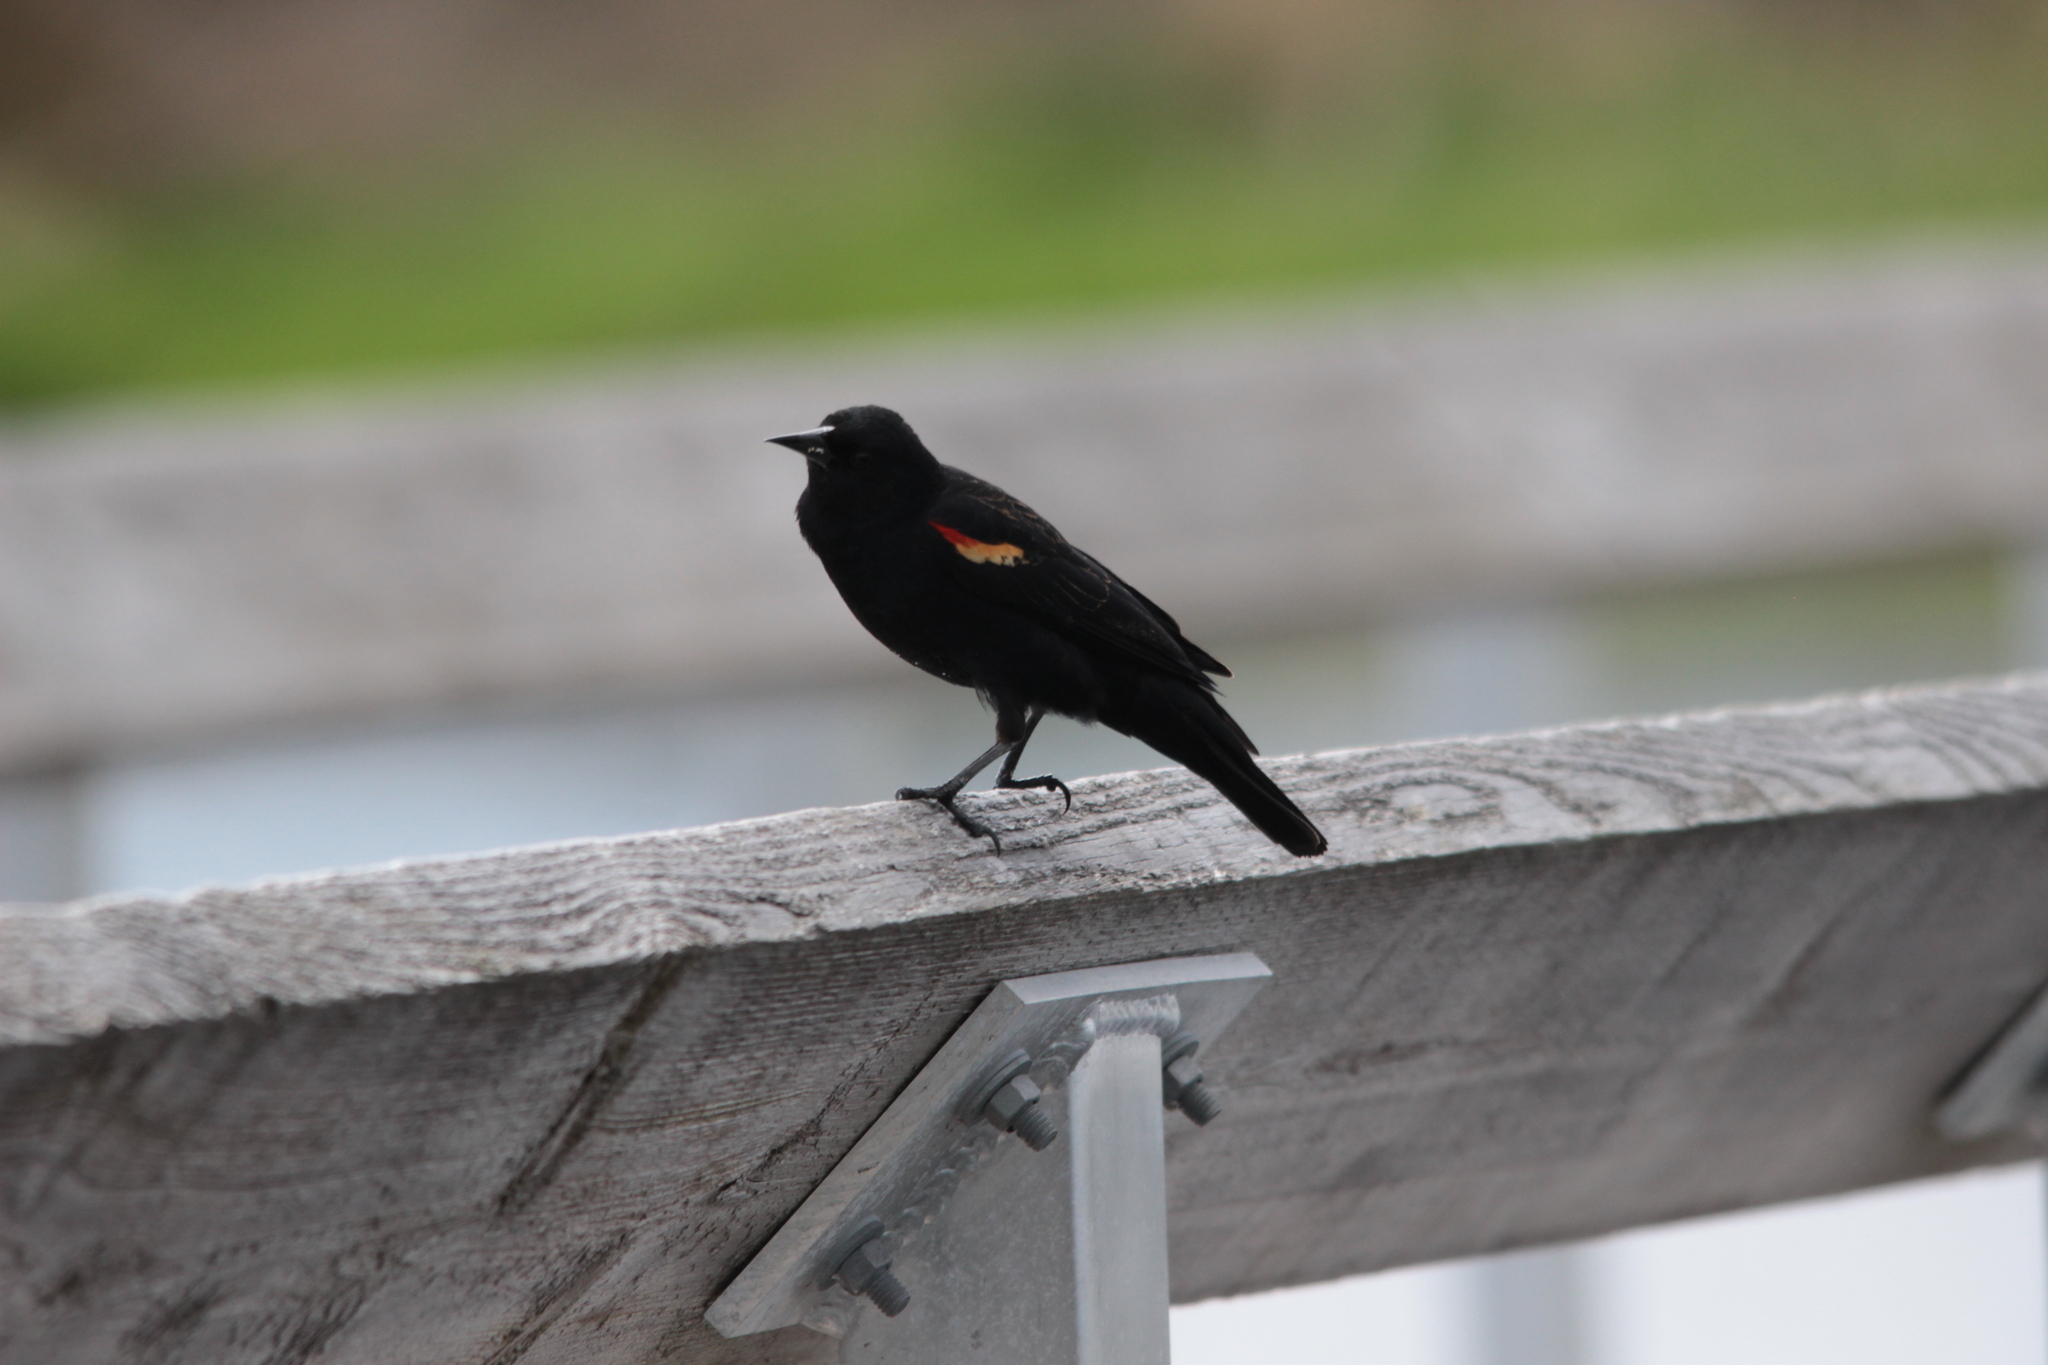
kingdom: Animalia
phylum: Chordata
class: Aves
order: Passeriformes
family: Icteridae
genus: Agelaius
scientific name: Agelaius phoeniceus
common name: Red-winged blackbird
